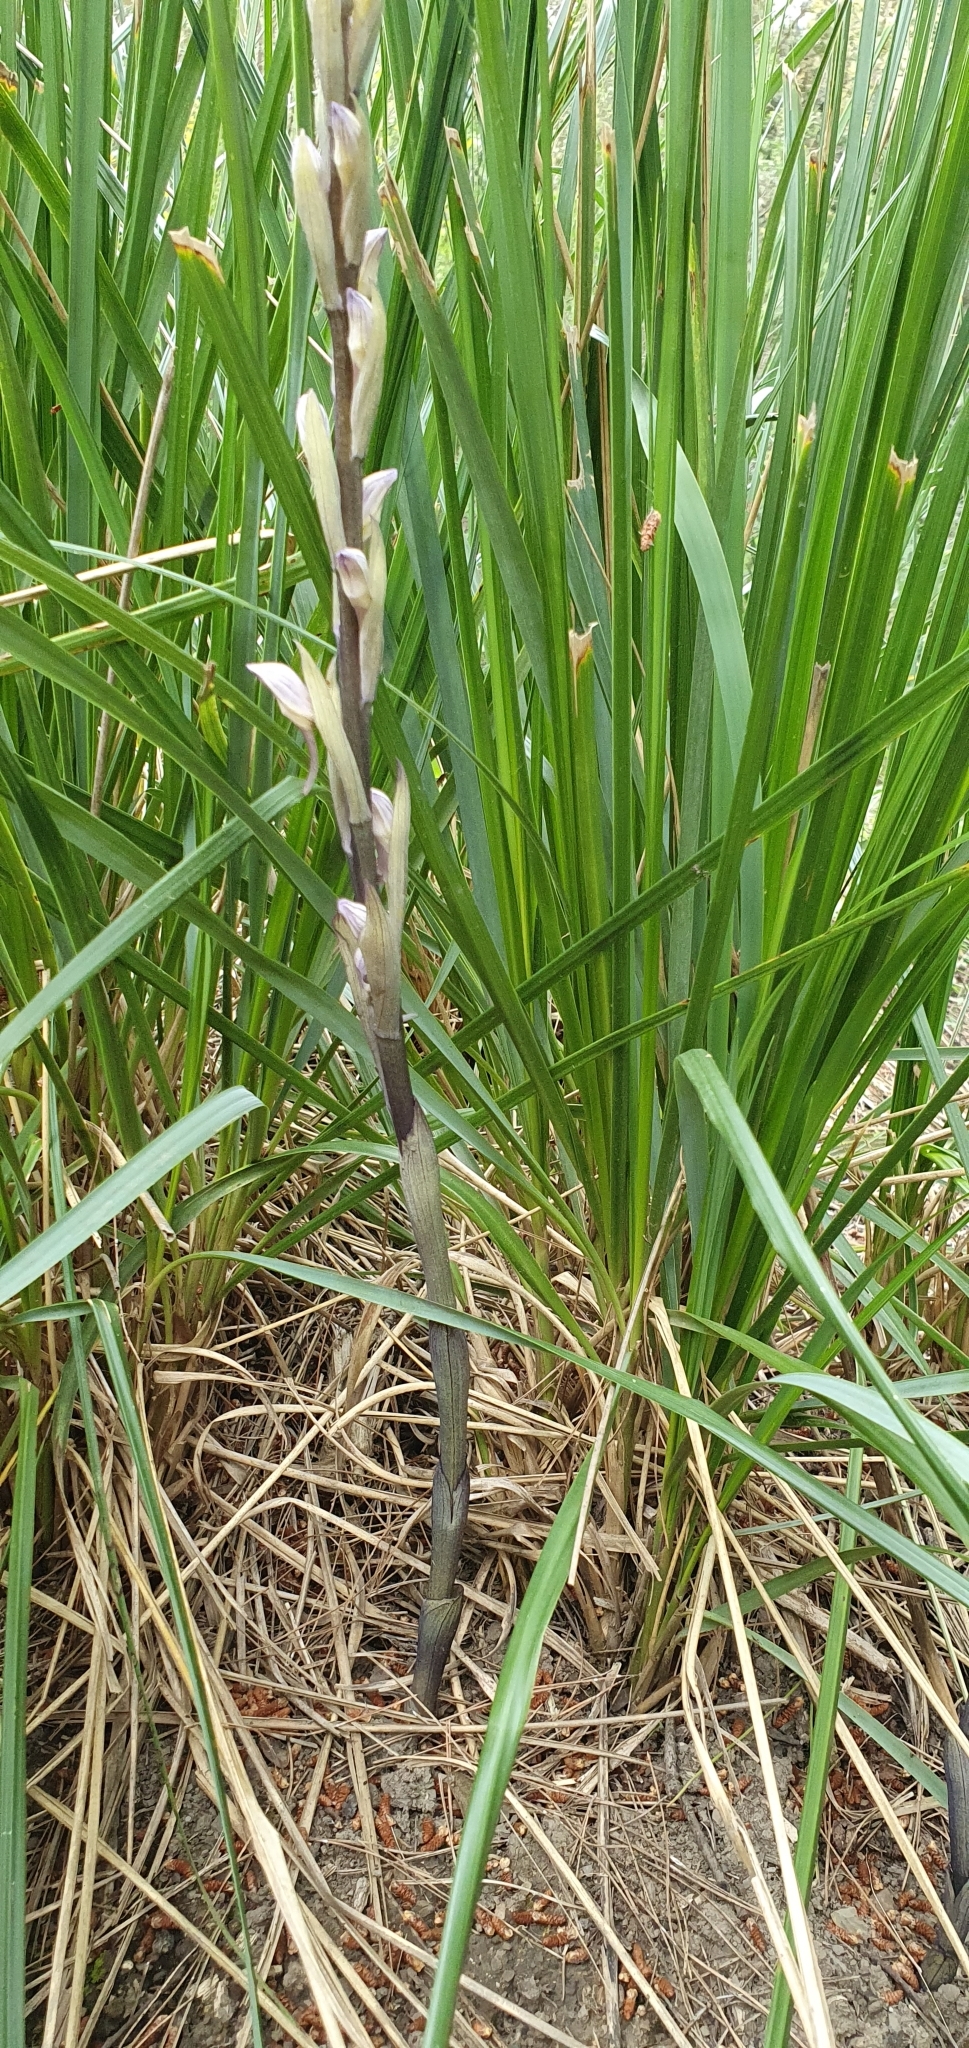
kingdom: Plantae
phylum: Tracheophyta
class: Liliopsida
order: Asparagales
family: Orchidaceae
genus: Limodorum
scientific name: Limodorum abortivum
